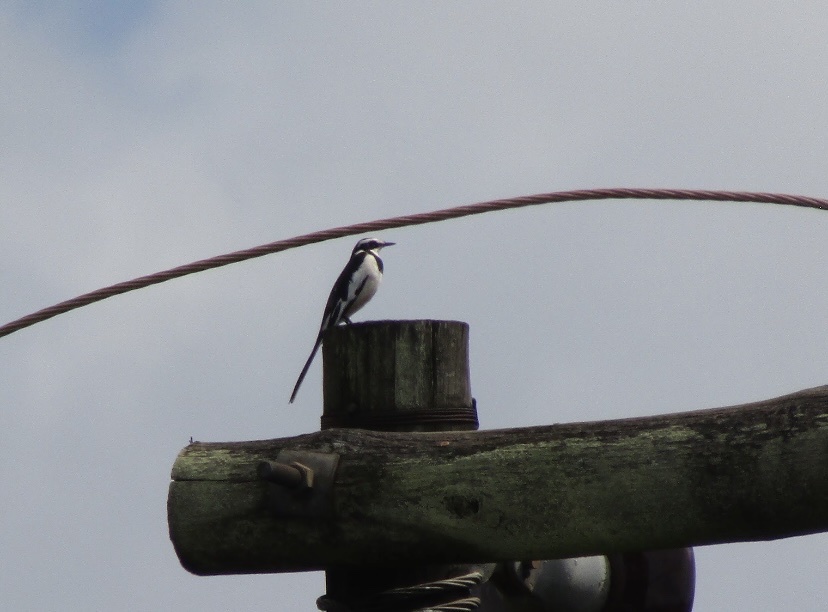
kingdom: Animalia
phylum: Chordata
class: Aves
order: Passeriformes
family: Motacillidae
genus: Motacilla
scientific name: Motacilla aguimp
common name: African pied wagtail
